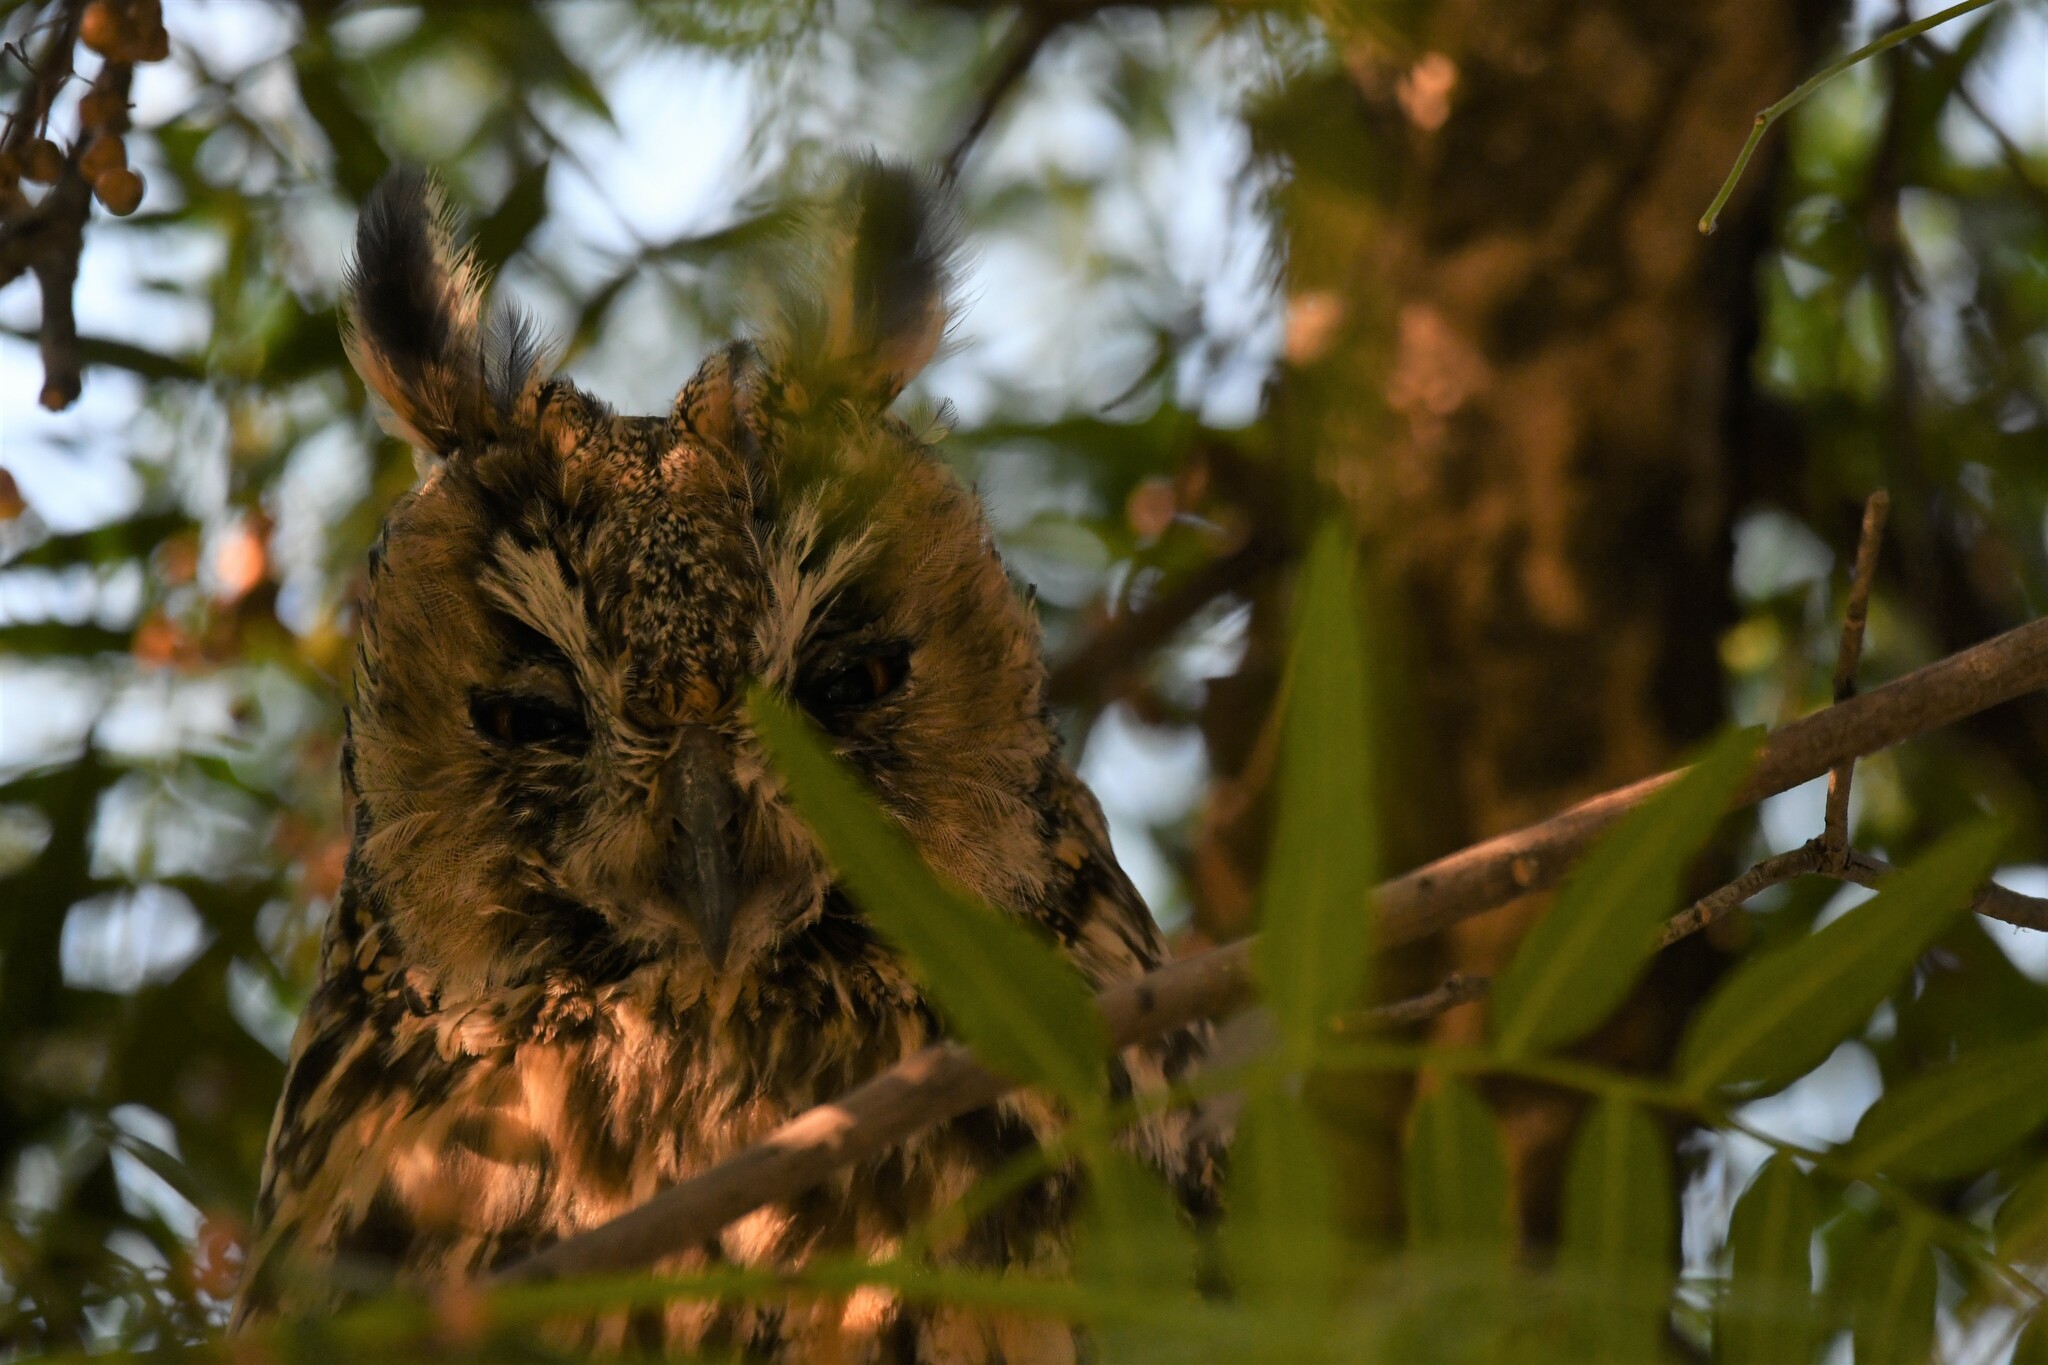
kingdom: Animalia
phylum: Chordata
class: Aves
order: Strigiformes
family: Strigidae
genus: Asio
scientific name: Asio otus
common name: Long-eared owl
